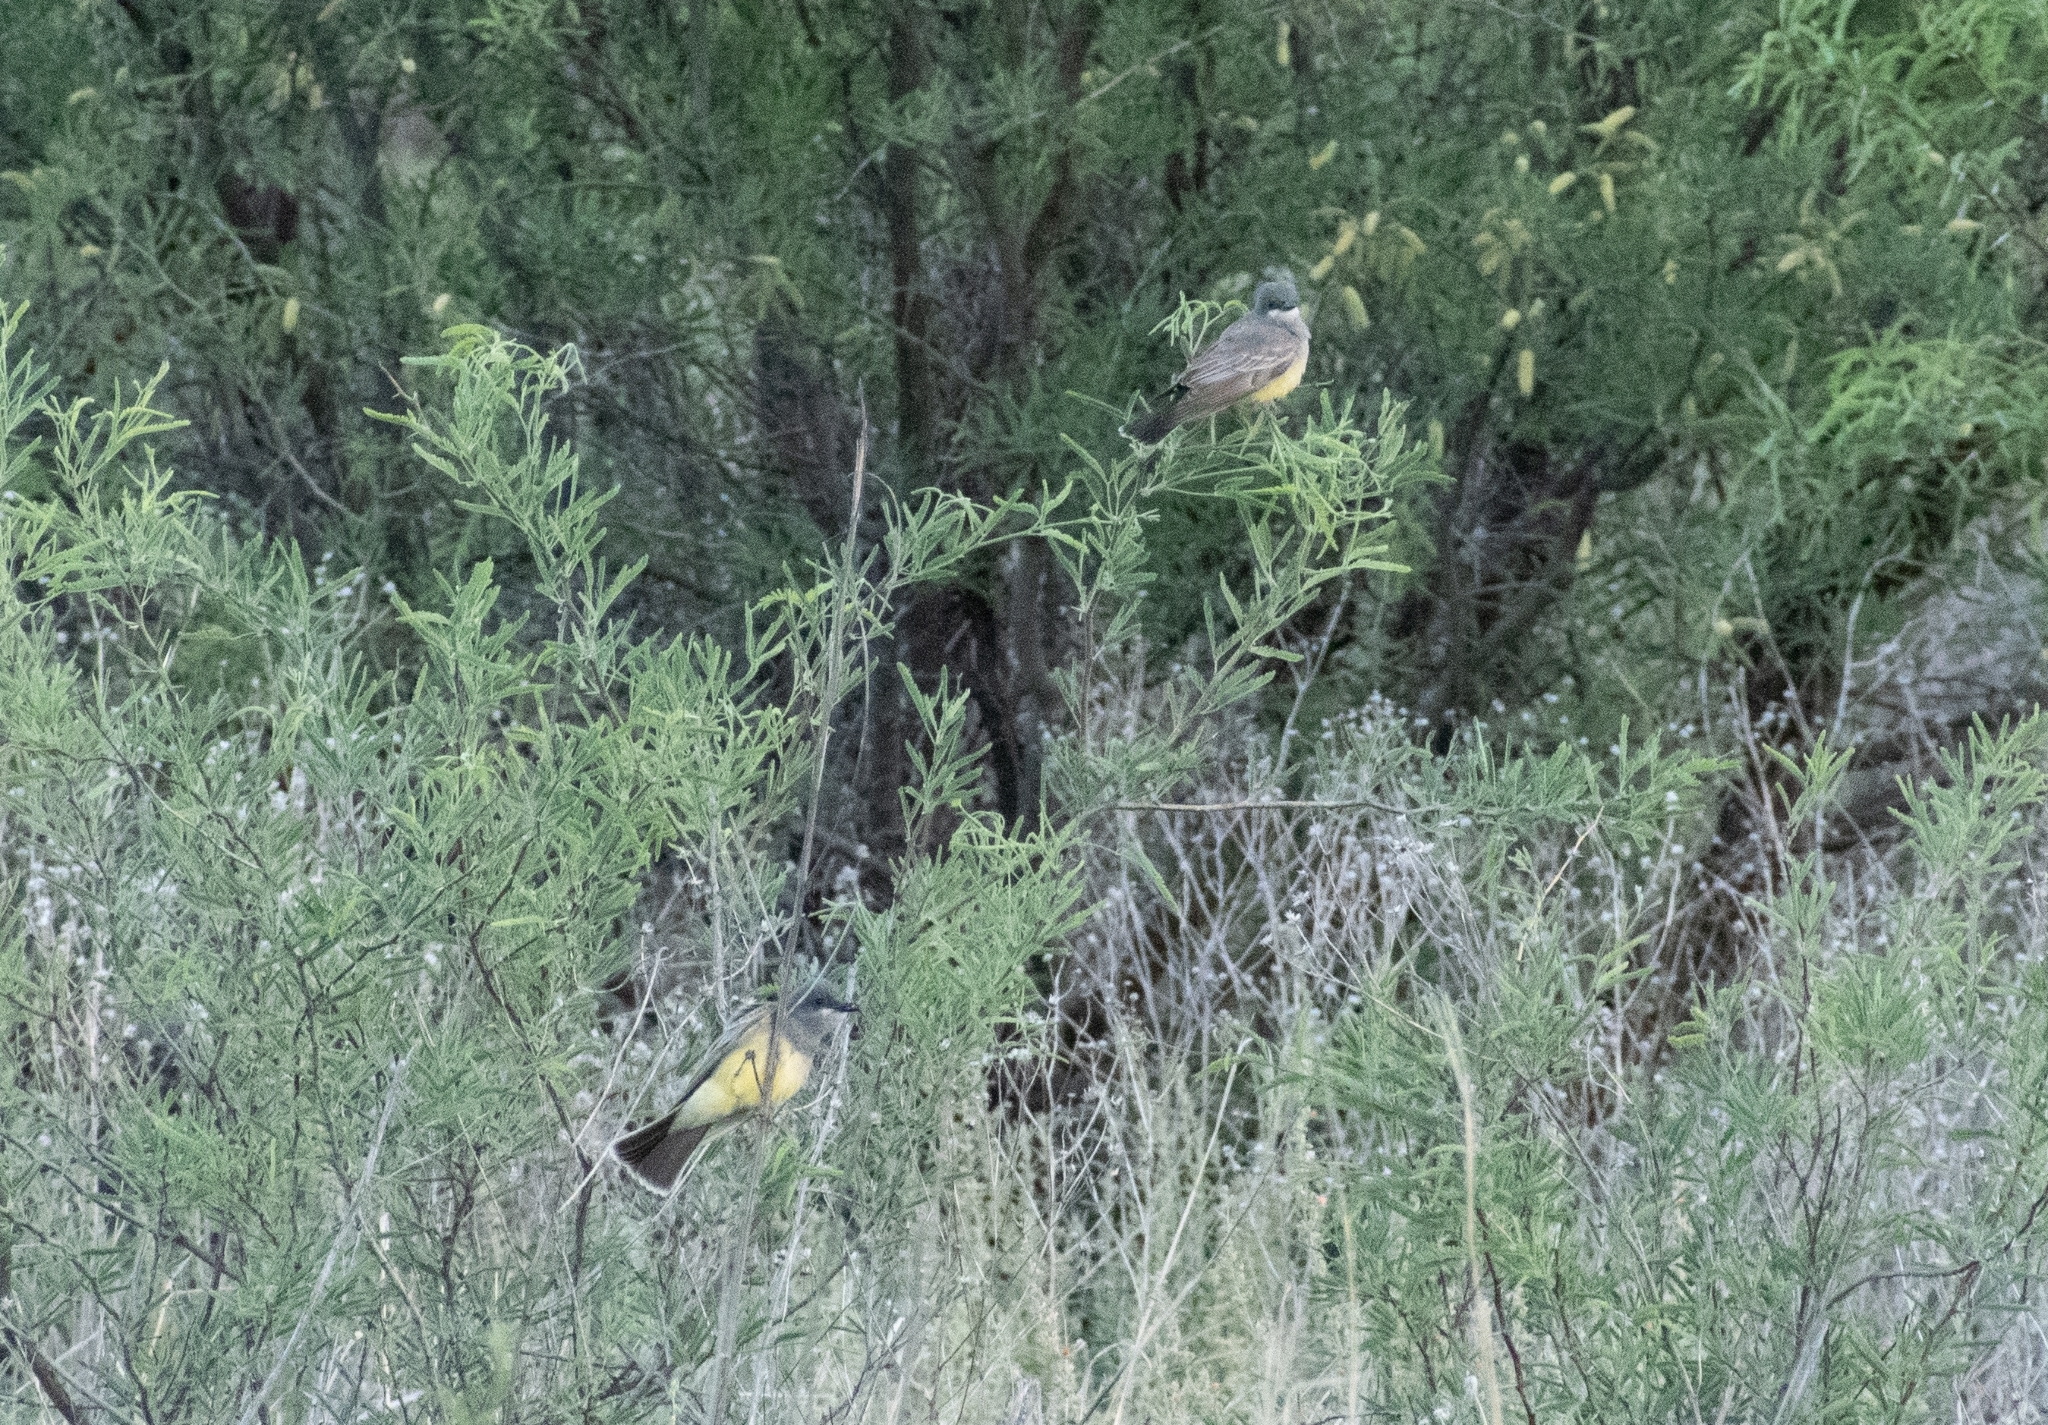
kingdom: Animalia
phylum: Chordata
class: Aves
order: Passeriformes
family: Tyrannidae
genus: Tyrannus
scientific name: Tyrannus vociferans
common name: Cassin's kingbird
